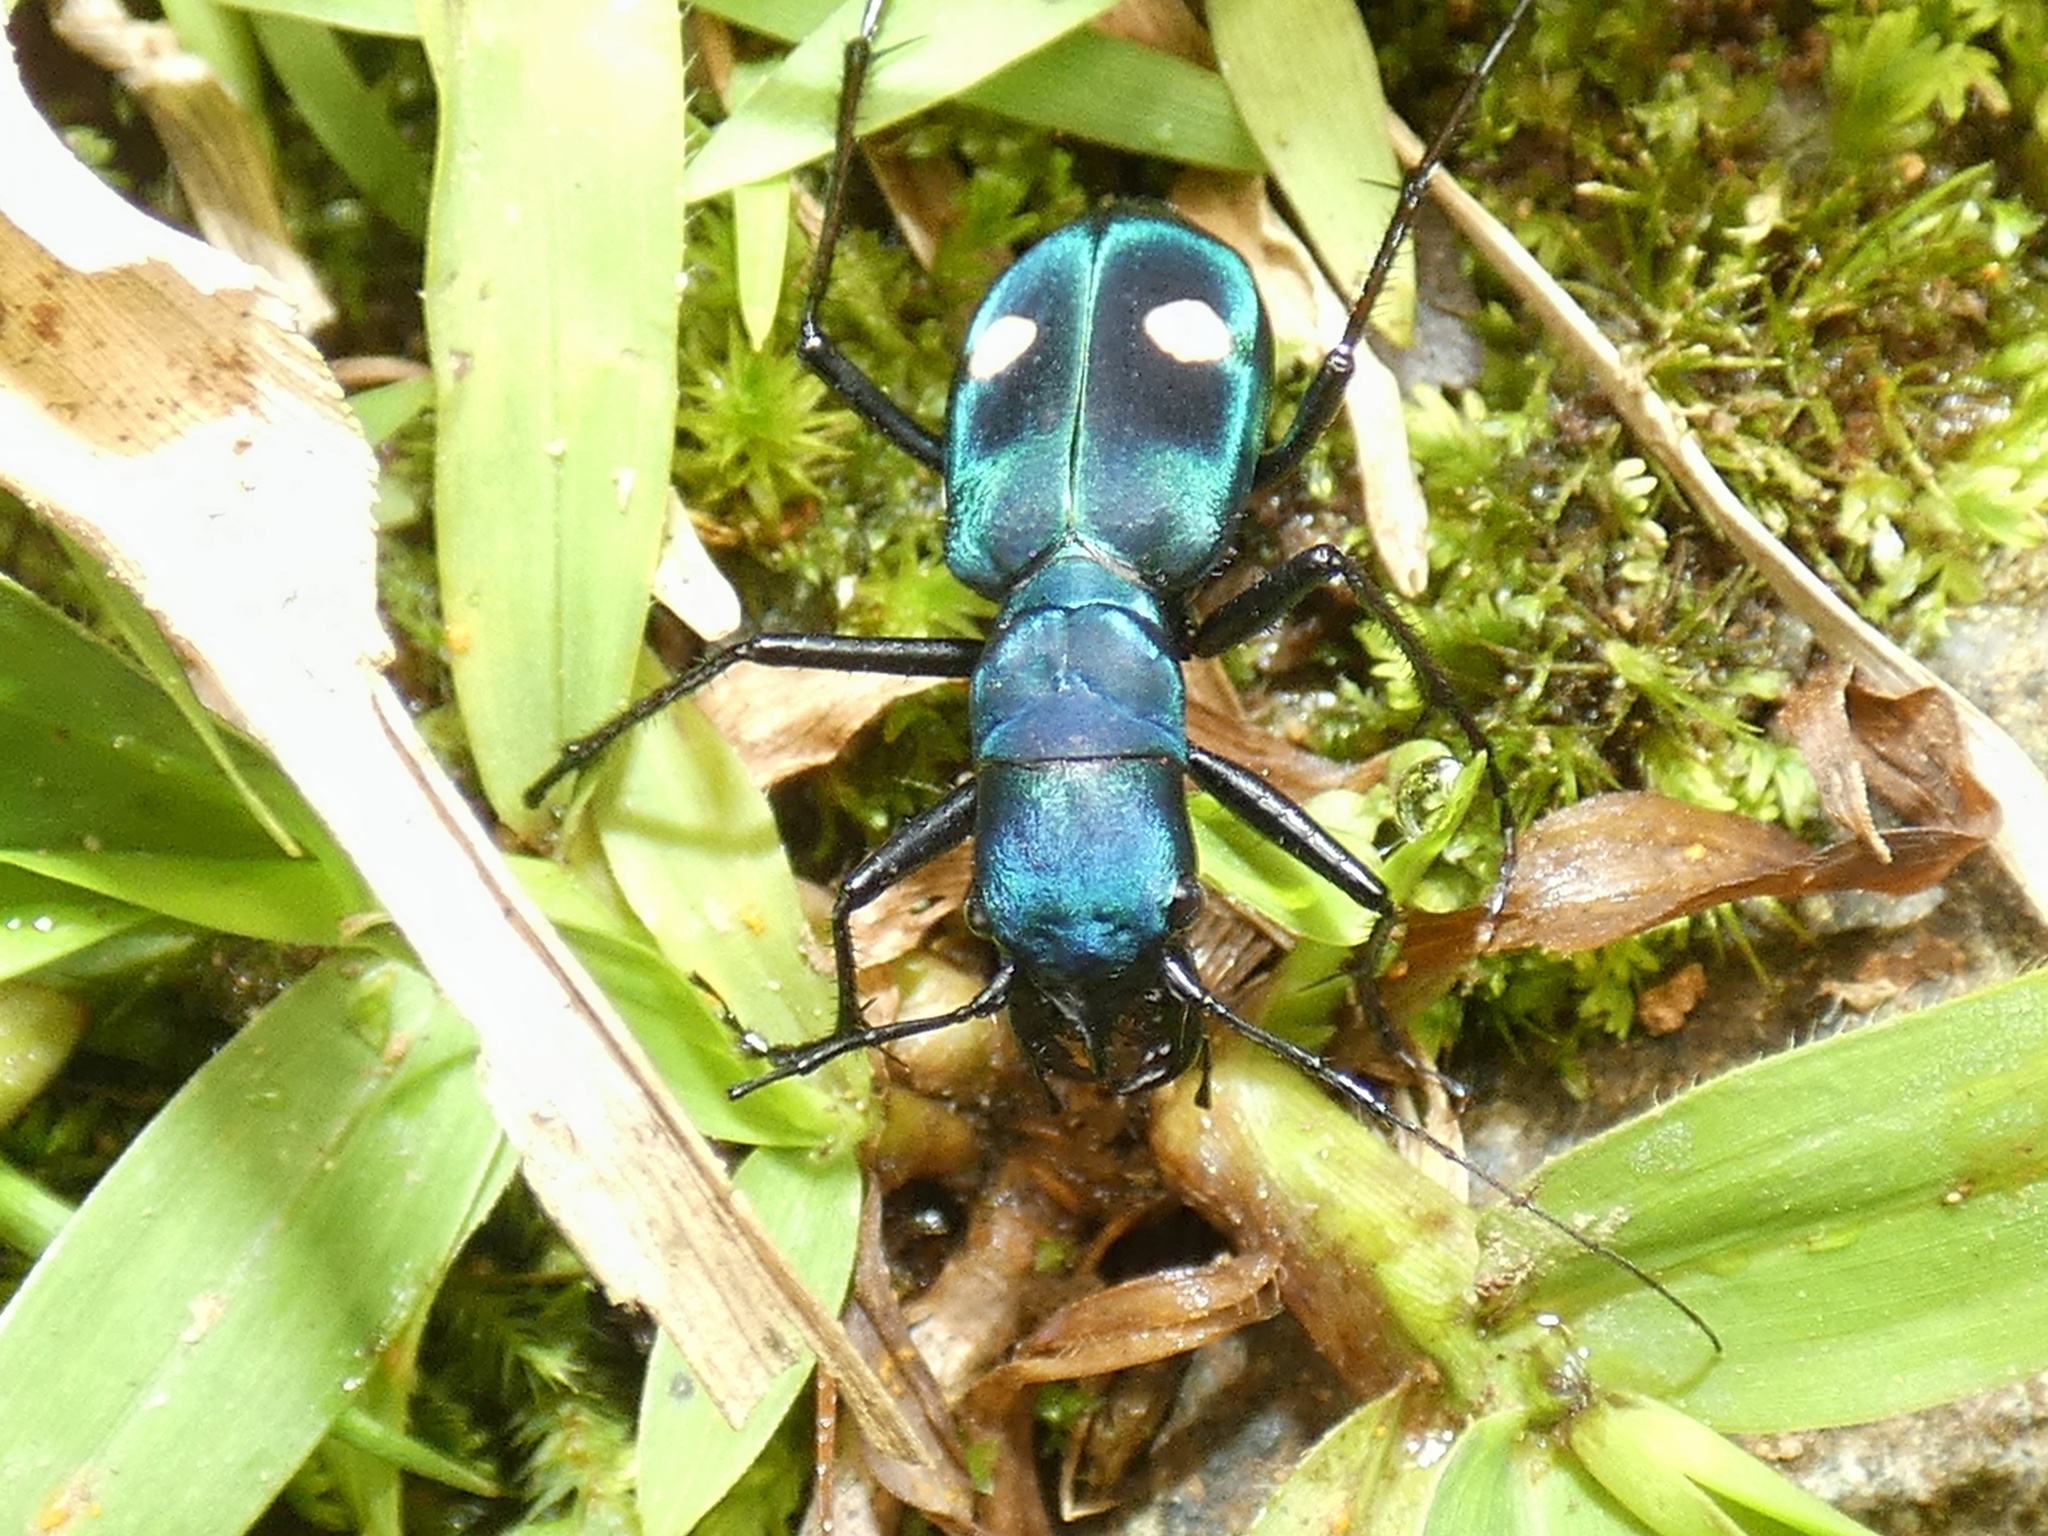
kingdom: Animalia
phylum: Arthropoda
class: Insecta
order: Coleoptera
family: Carabidae
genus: Pseudoxycheila
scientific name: Pseudoxycheila tarsalis
